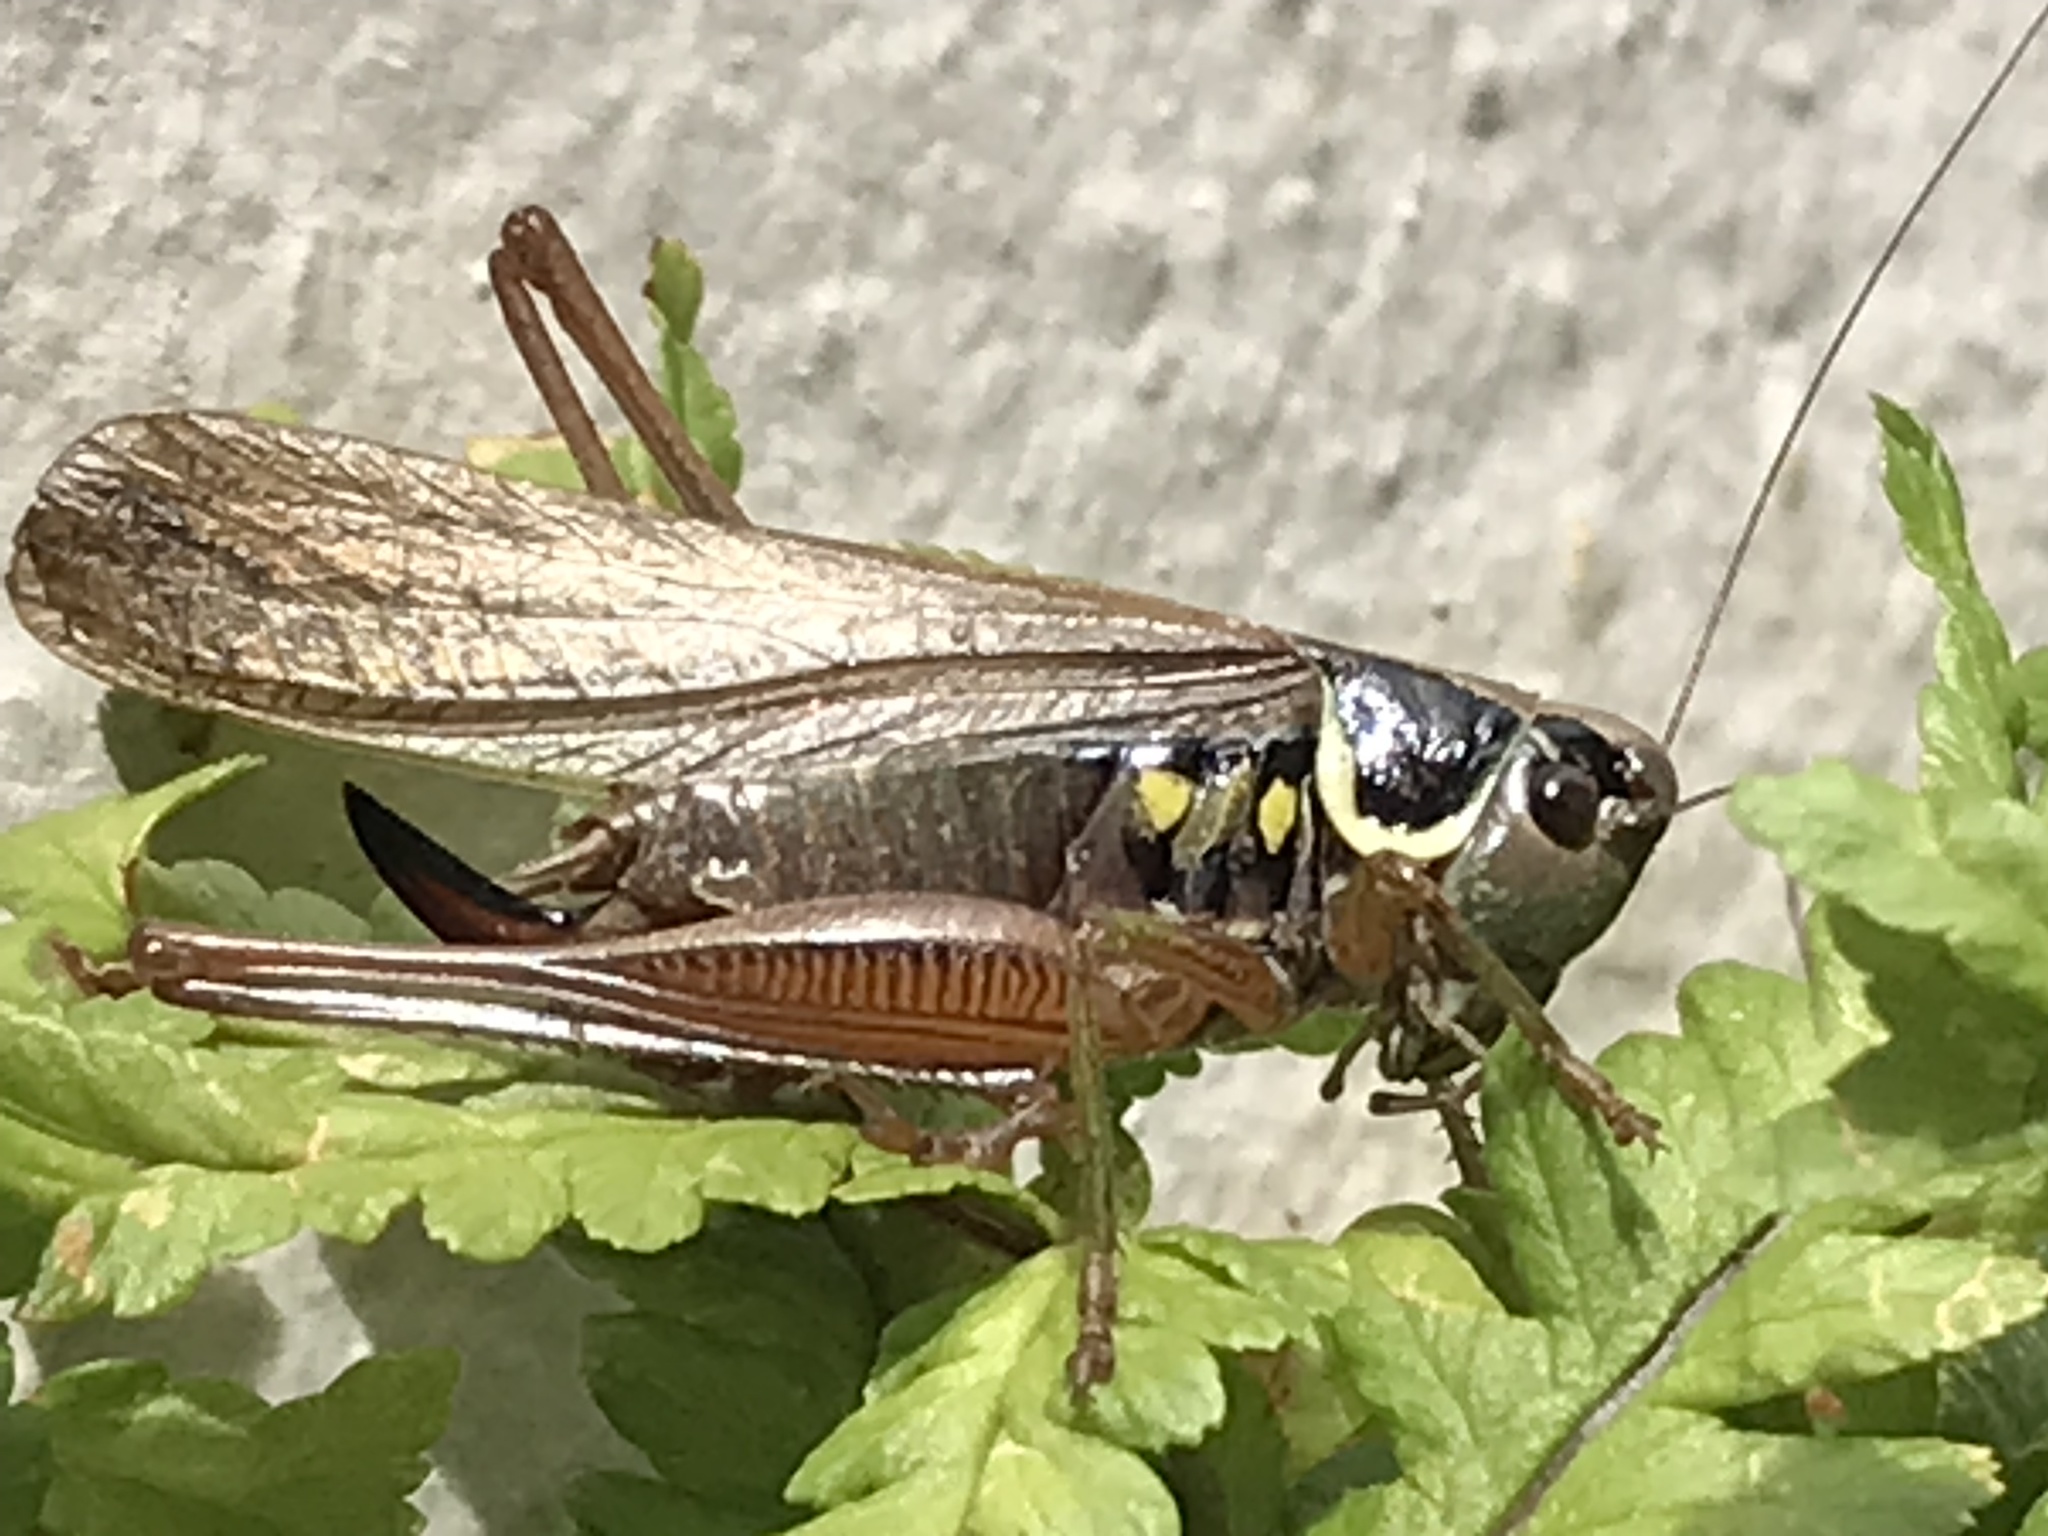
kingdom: Animalia
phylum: Arthropoda
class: Insecta
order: Orthoptera
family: Tettigoniidae
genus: Roeseliana
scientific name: Roeseliana roeselii
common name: Roesel's bush cricket
